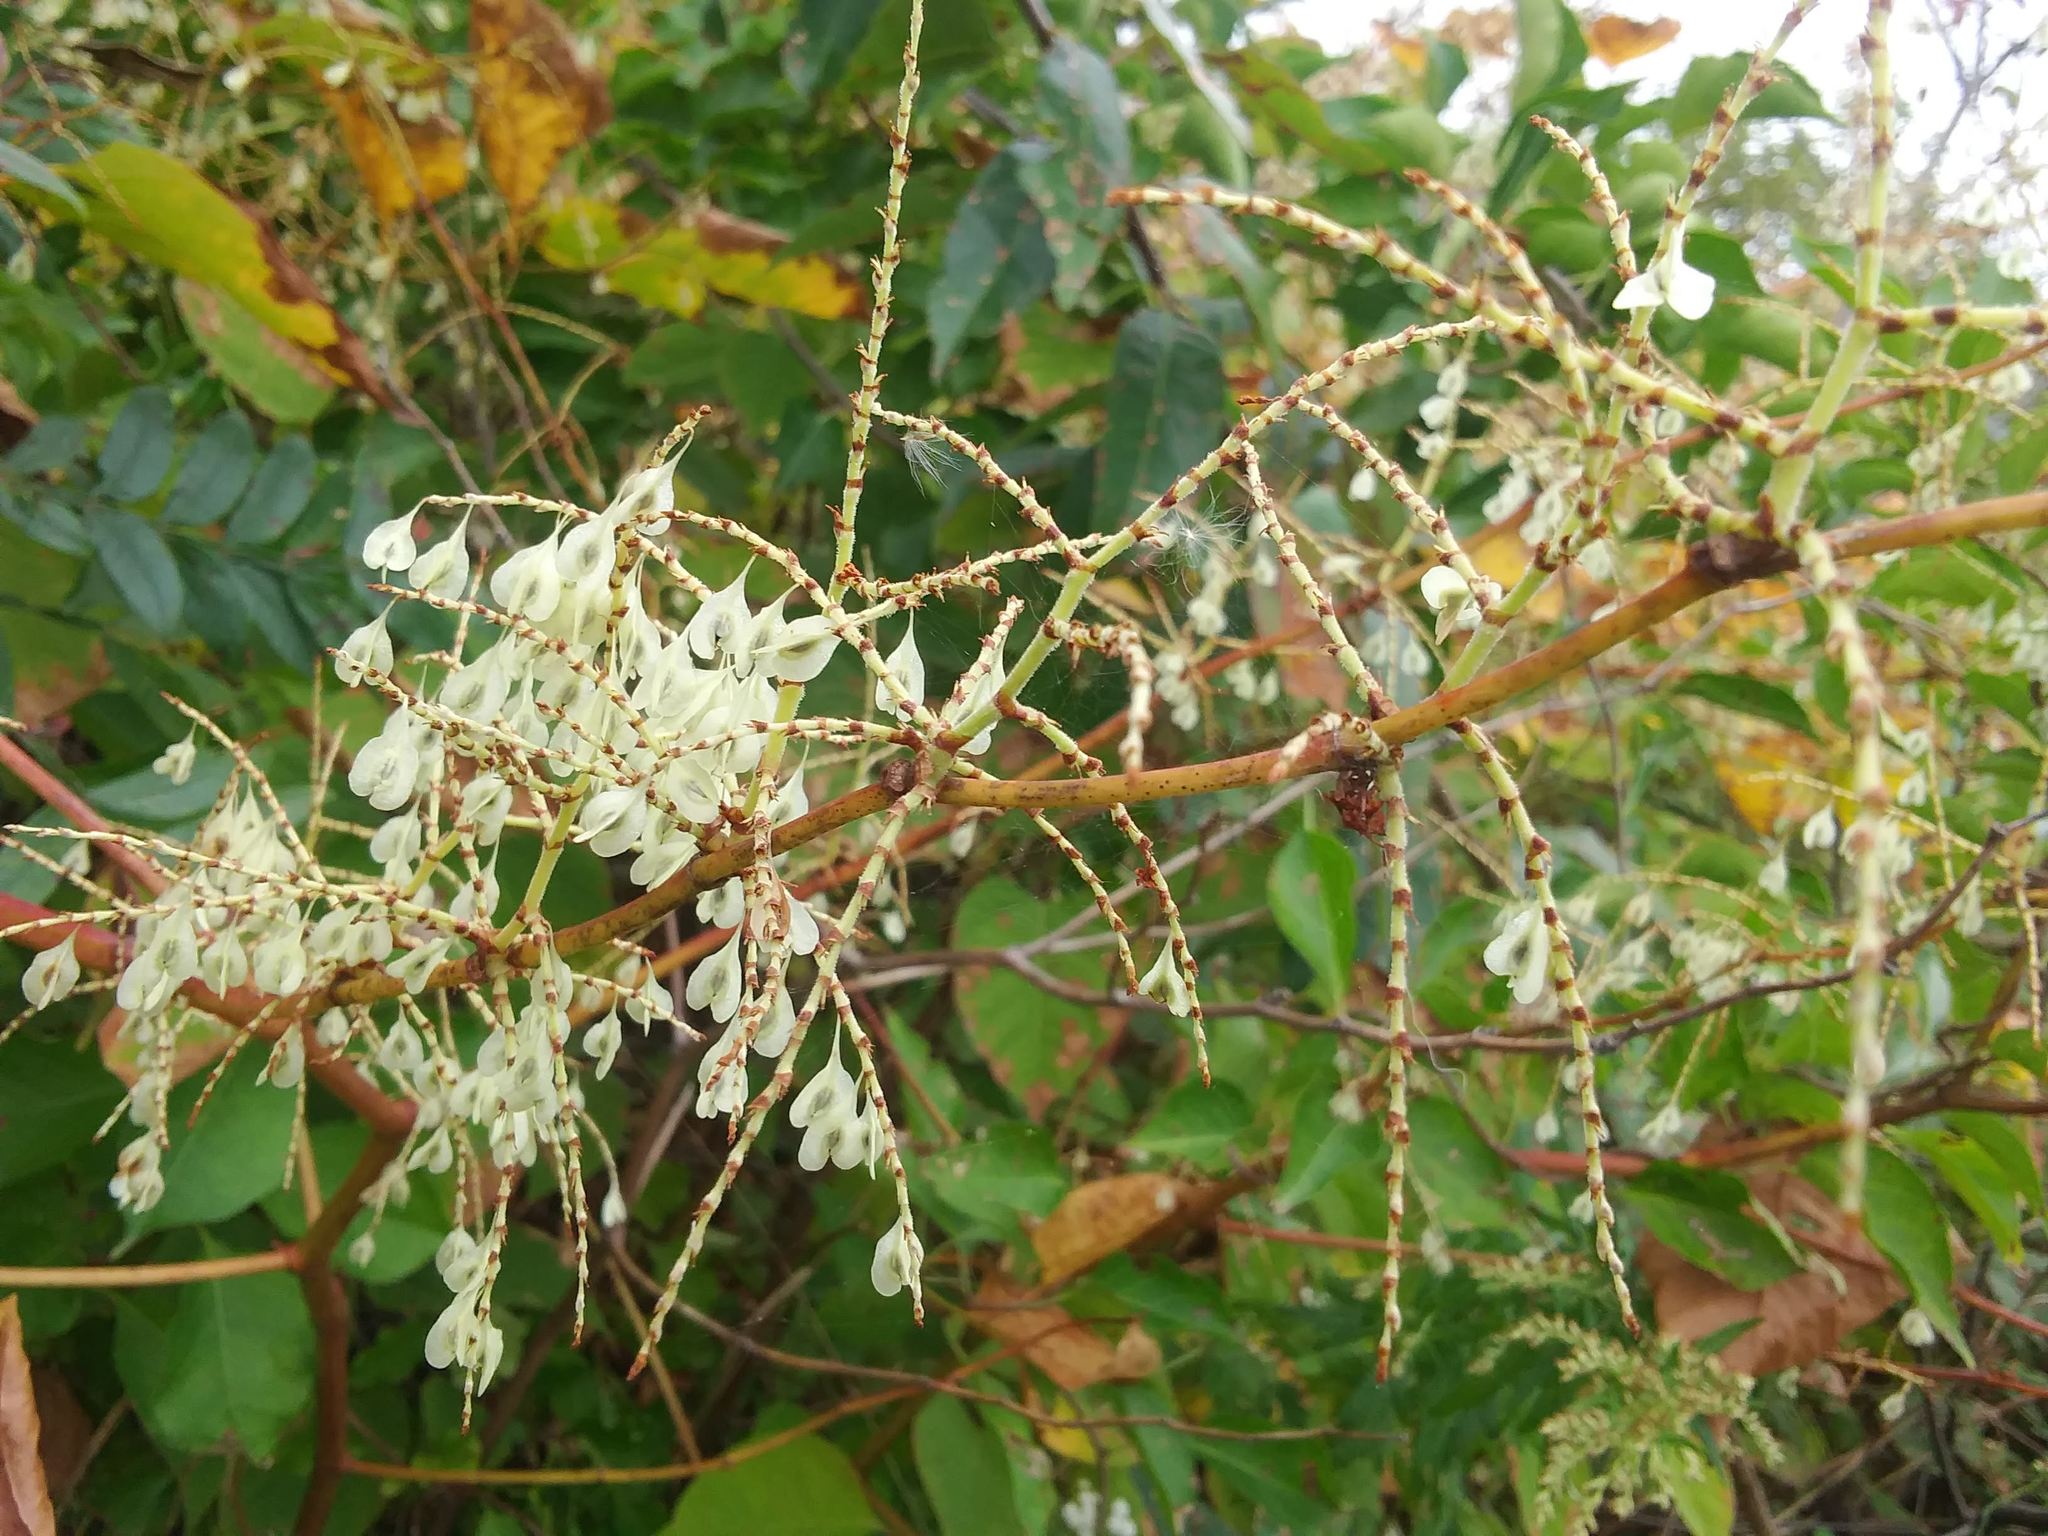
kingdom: Plantae
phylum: Tracheophyta
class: Magnoliopsida
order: Caryophyllales
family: Polygonaceae
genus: Reynoutria
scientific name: Reynoutria japonica
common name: Japanese knotweed
